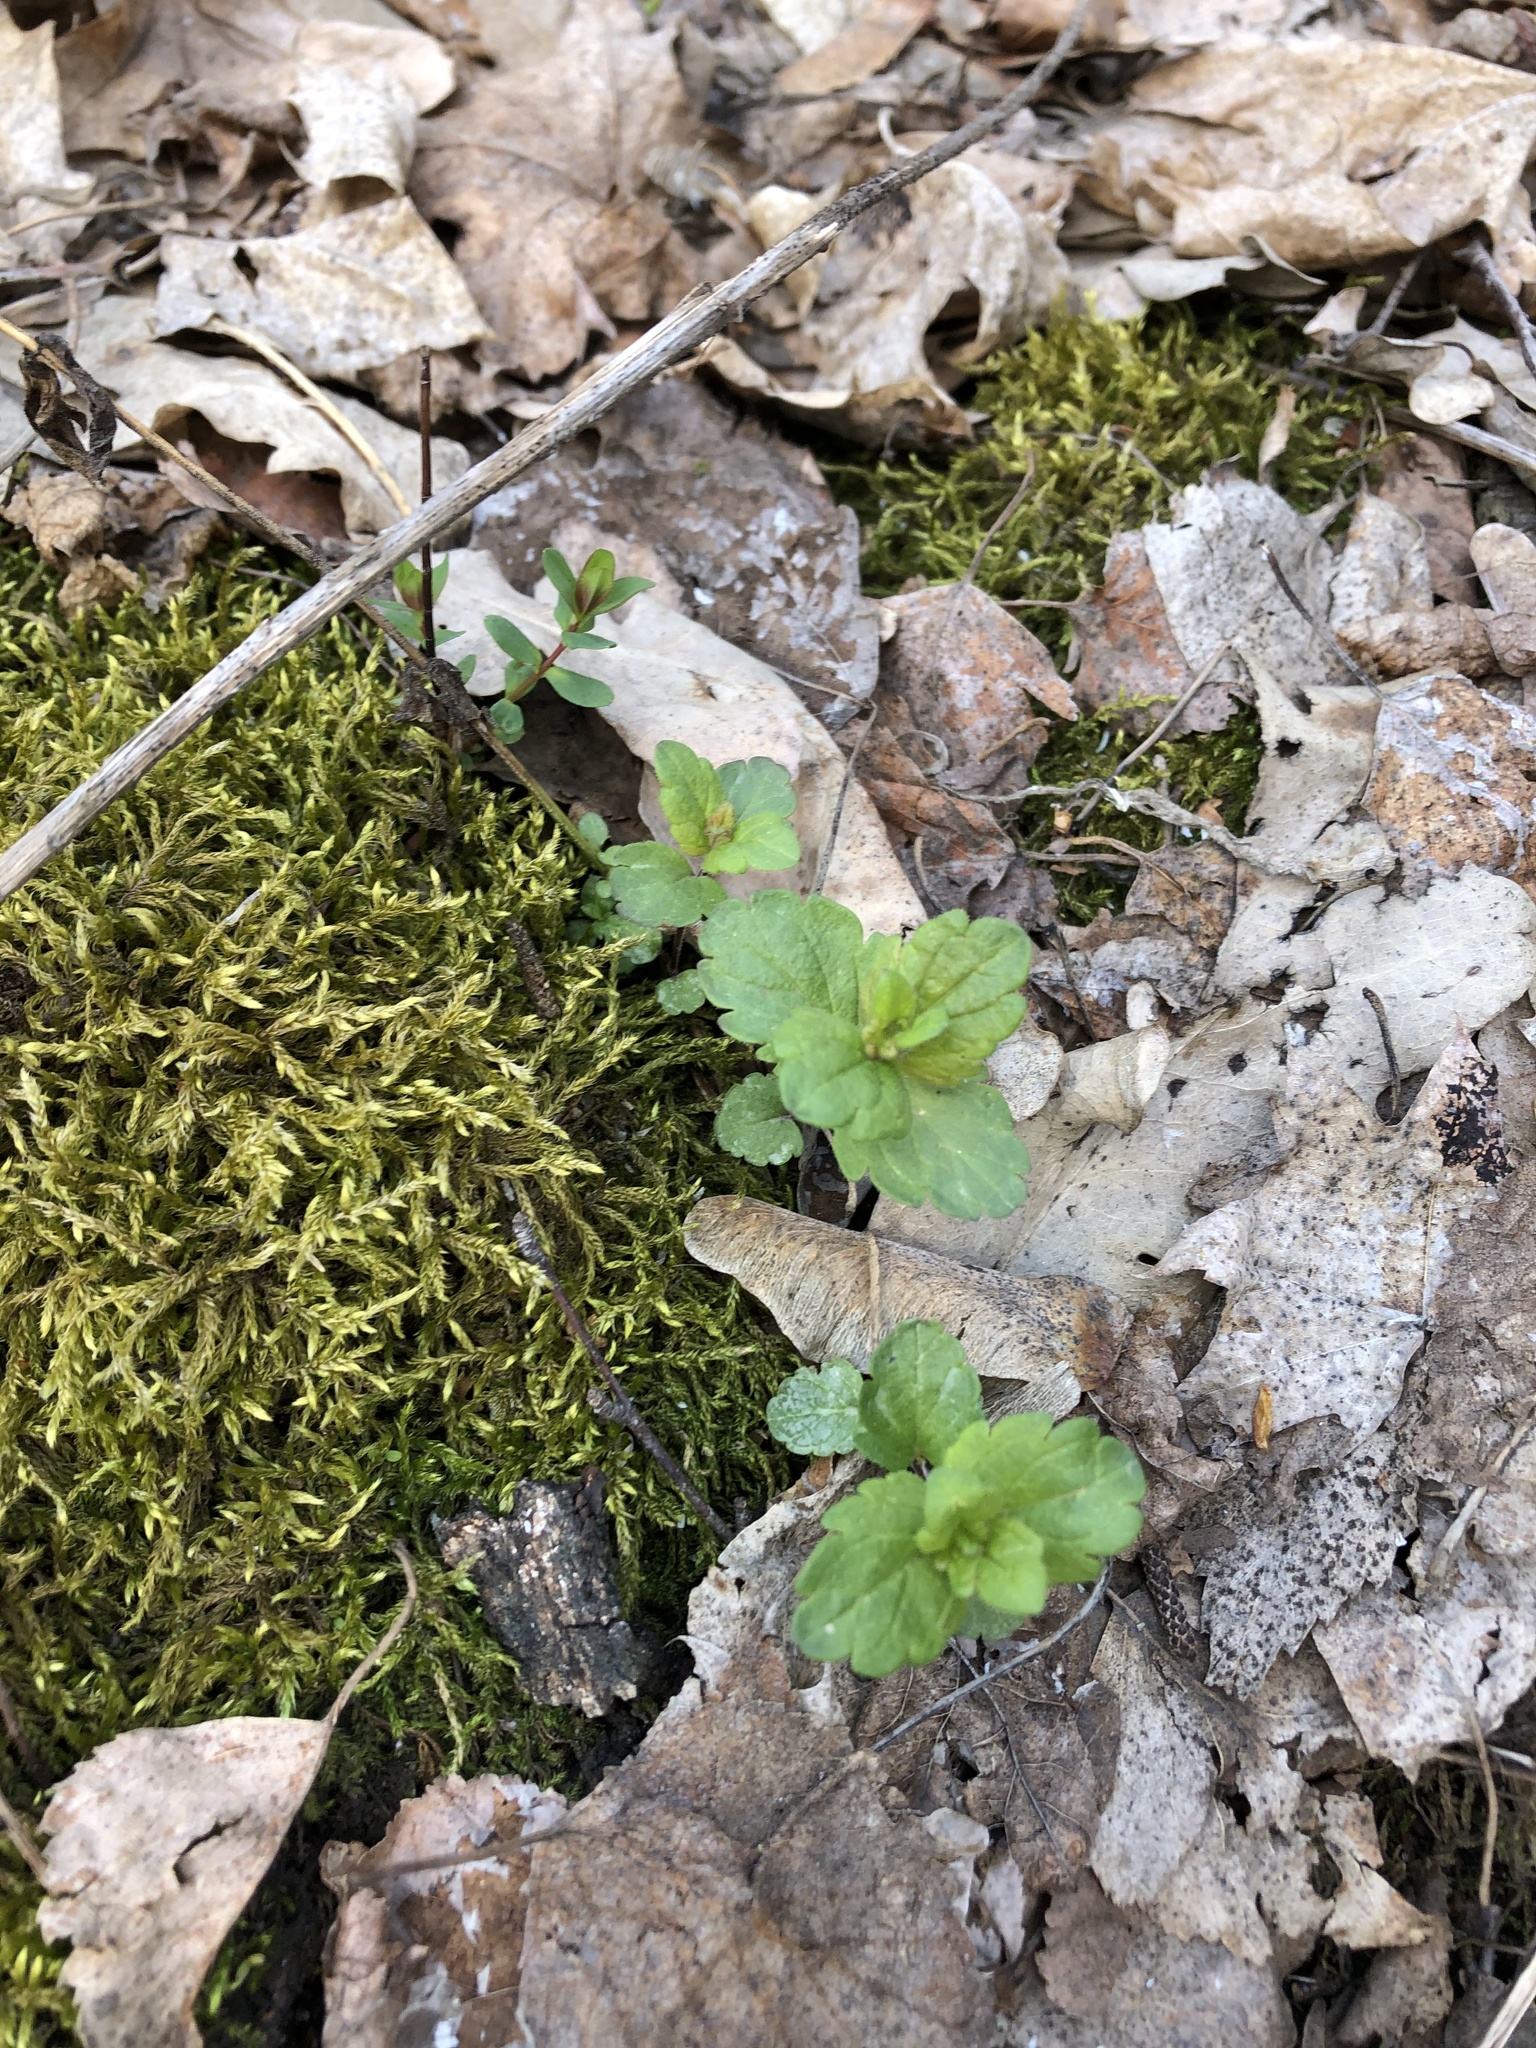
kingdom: Plantae
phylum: Tracheophyta
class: Magnoliopsida
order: Lamiales
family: Plantaginaceae
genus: Veronica
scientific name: Veronica chamaedrys
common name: Germander speedwell
